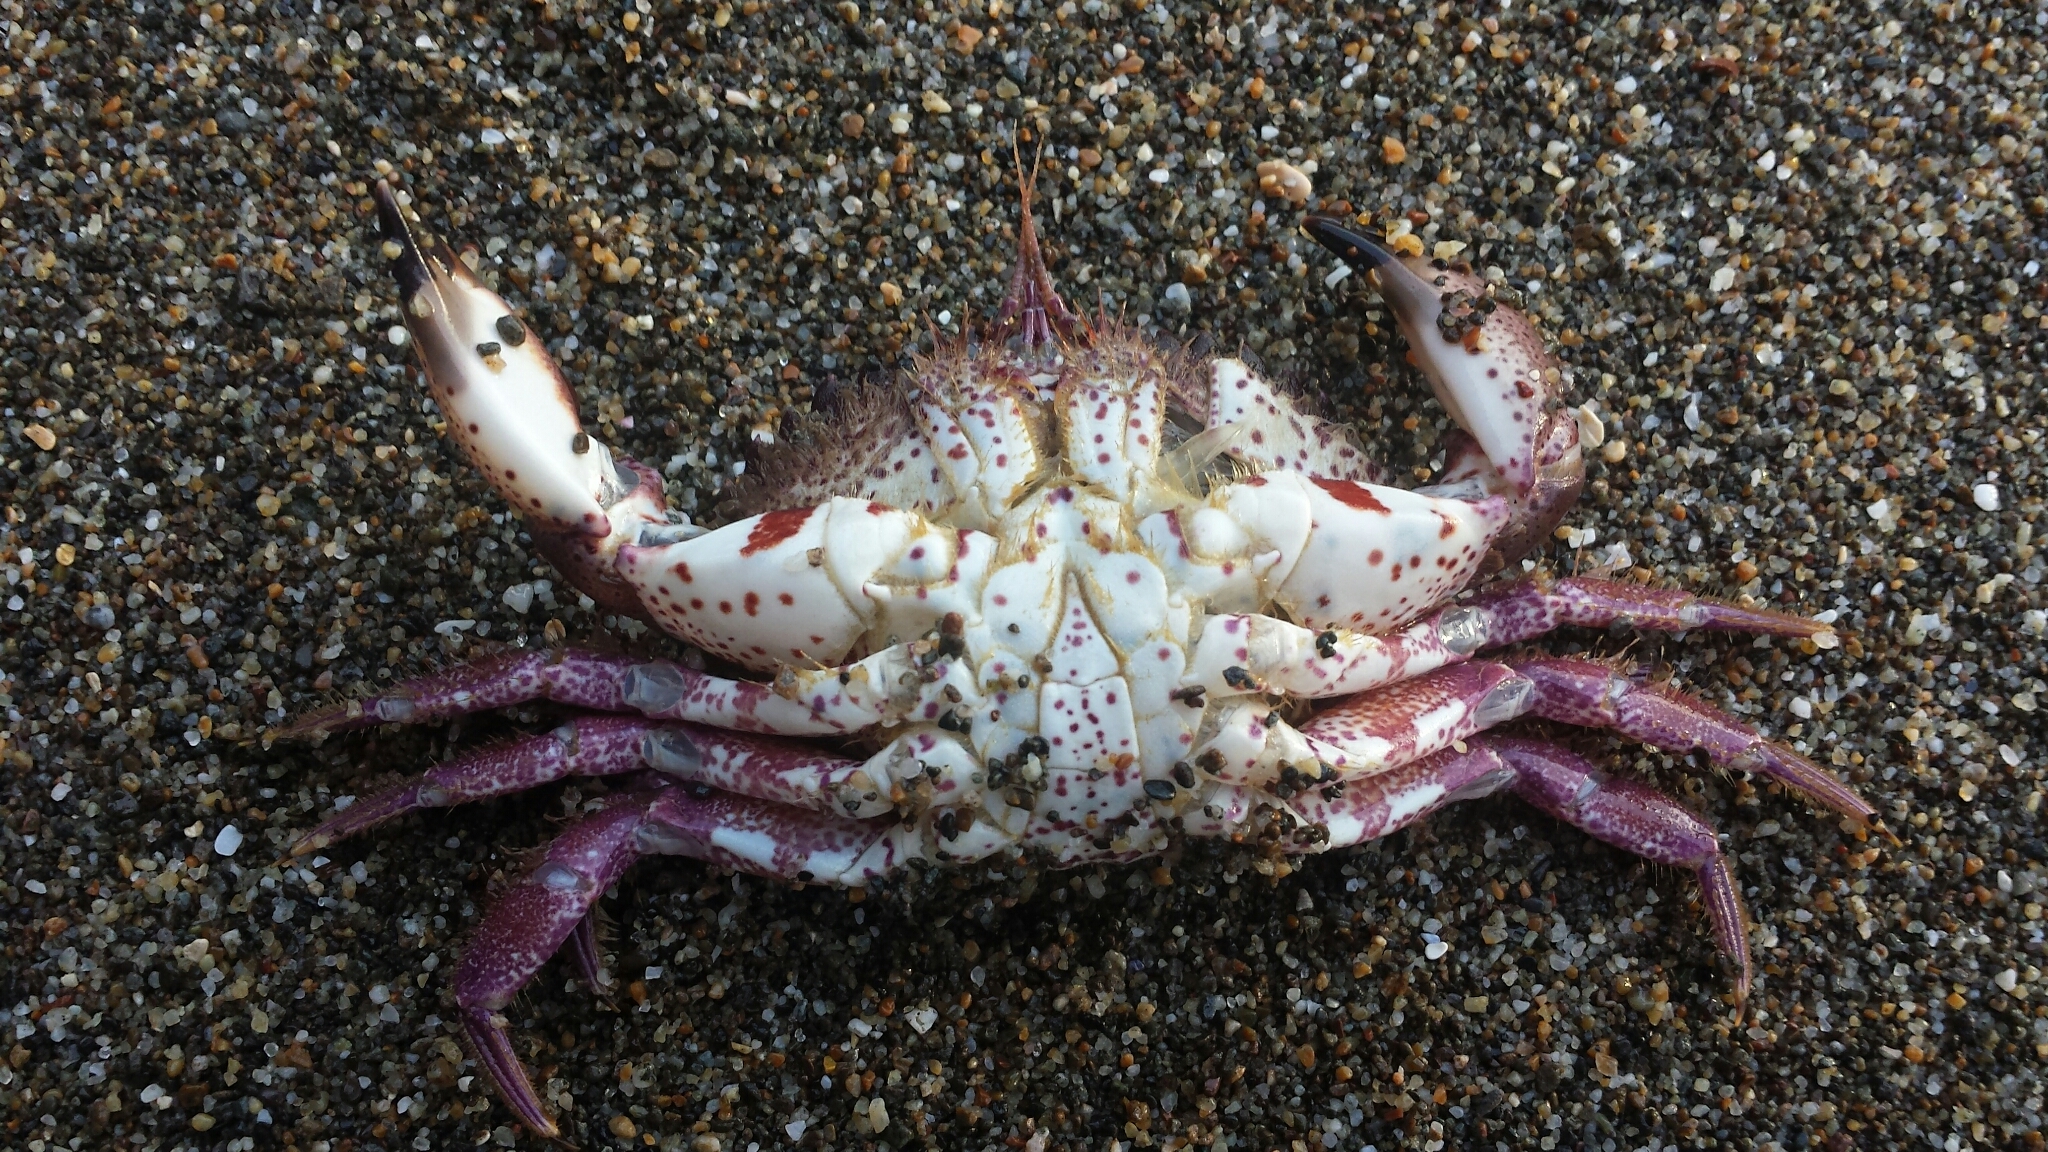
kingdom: Animalia
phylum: Arthropoda
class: Malacostraca
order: Decapoda
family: Cancridae
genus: Romaleon
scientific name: Romaleon antennarium
